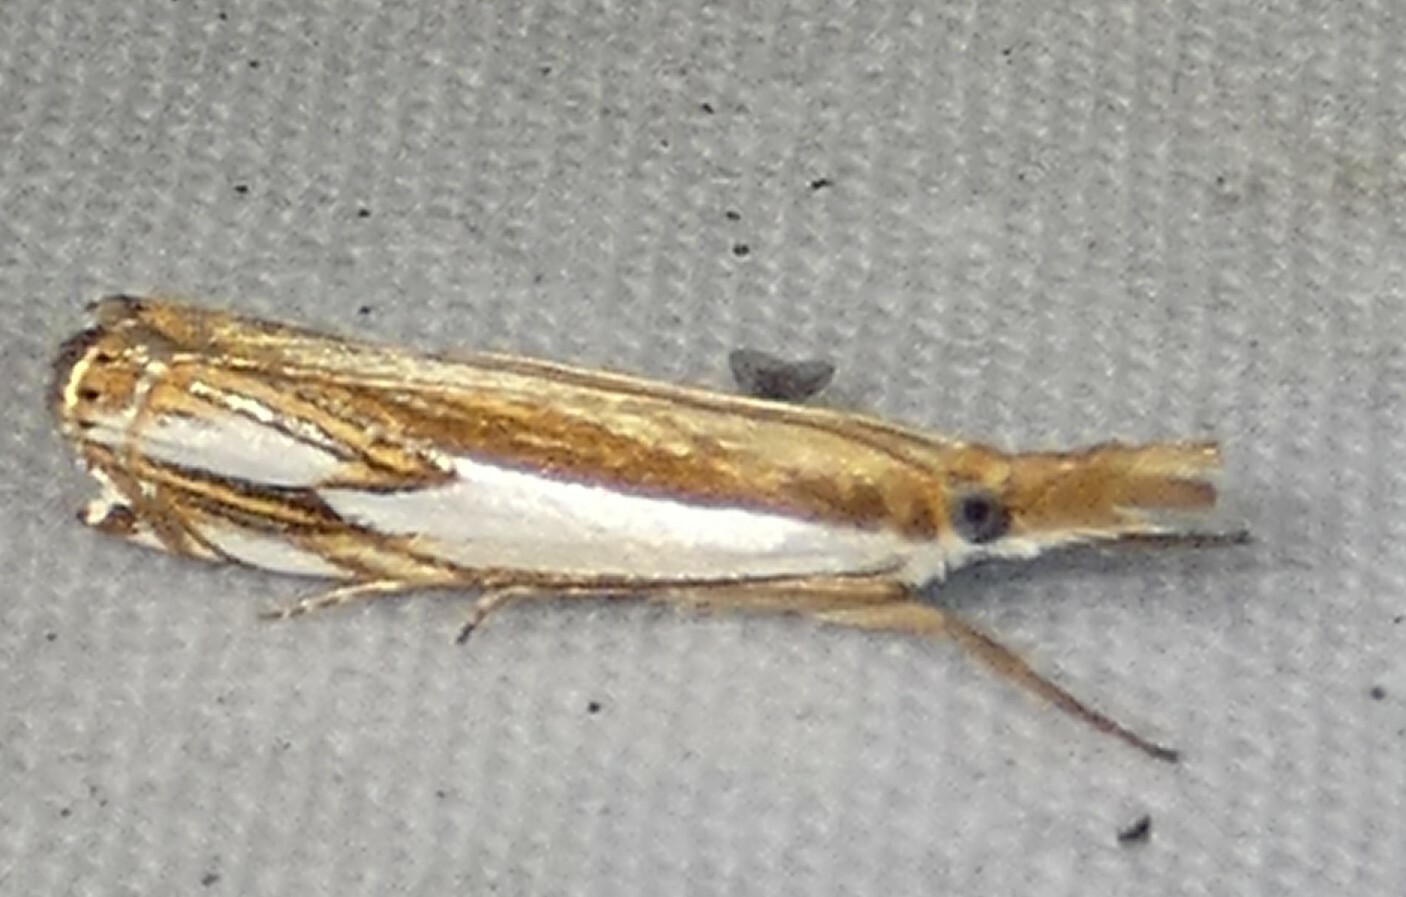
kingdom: Animalia
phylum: Arthropoda
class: Insecta
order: Lepidoptera
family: Crambidae
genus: Crambus
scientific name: Crambus agitatellus
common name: Double-banded grass-veneer
